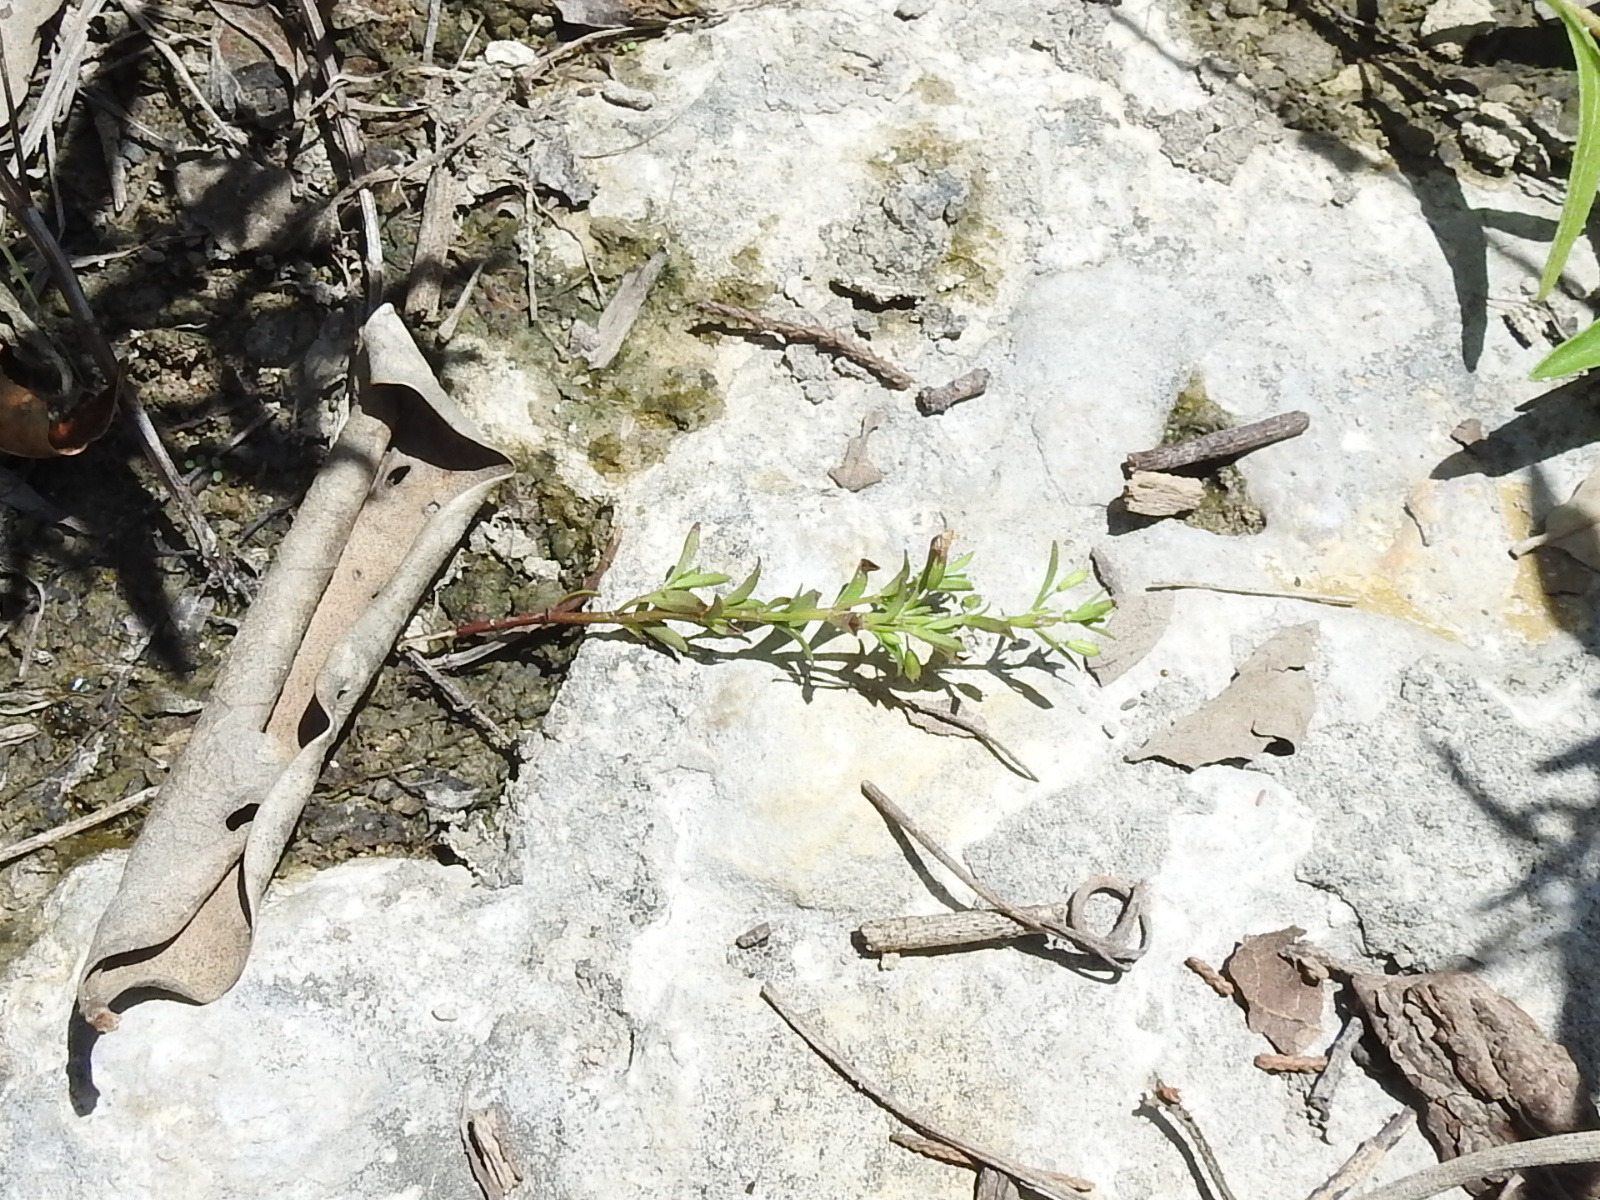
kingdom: Plantae
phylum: Tracheophyta
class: Magnoliopsida
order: Lamiales
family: Lamiaceae
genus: Clinopodium
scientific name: Clinopodium arkansanum
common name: Limestone calamint
